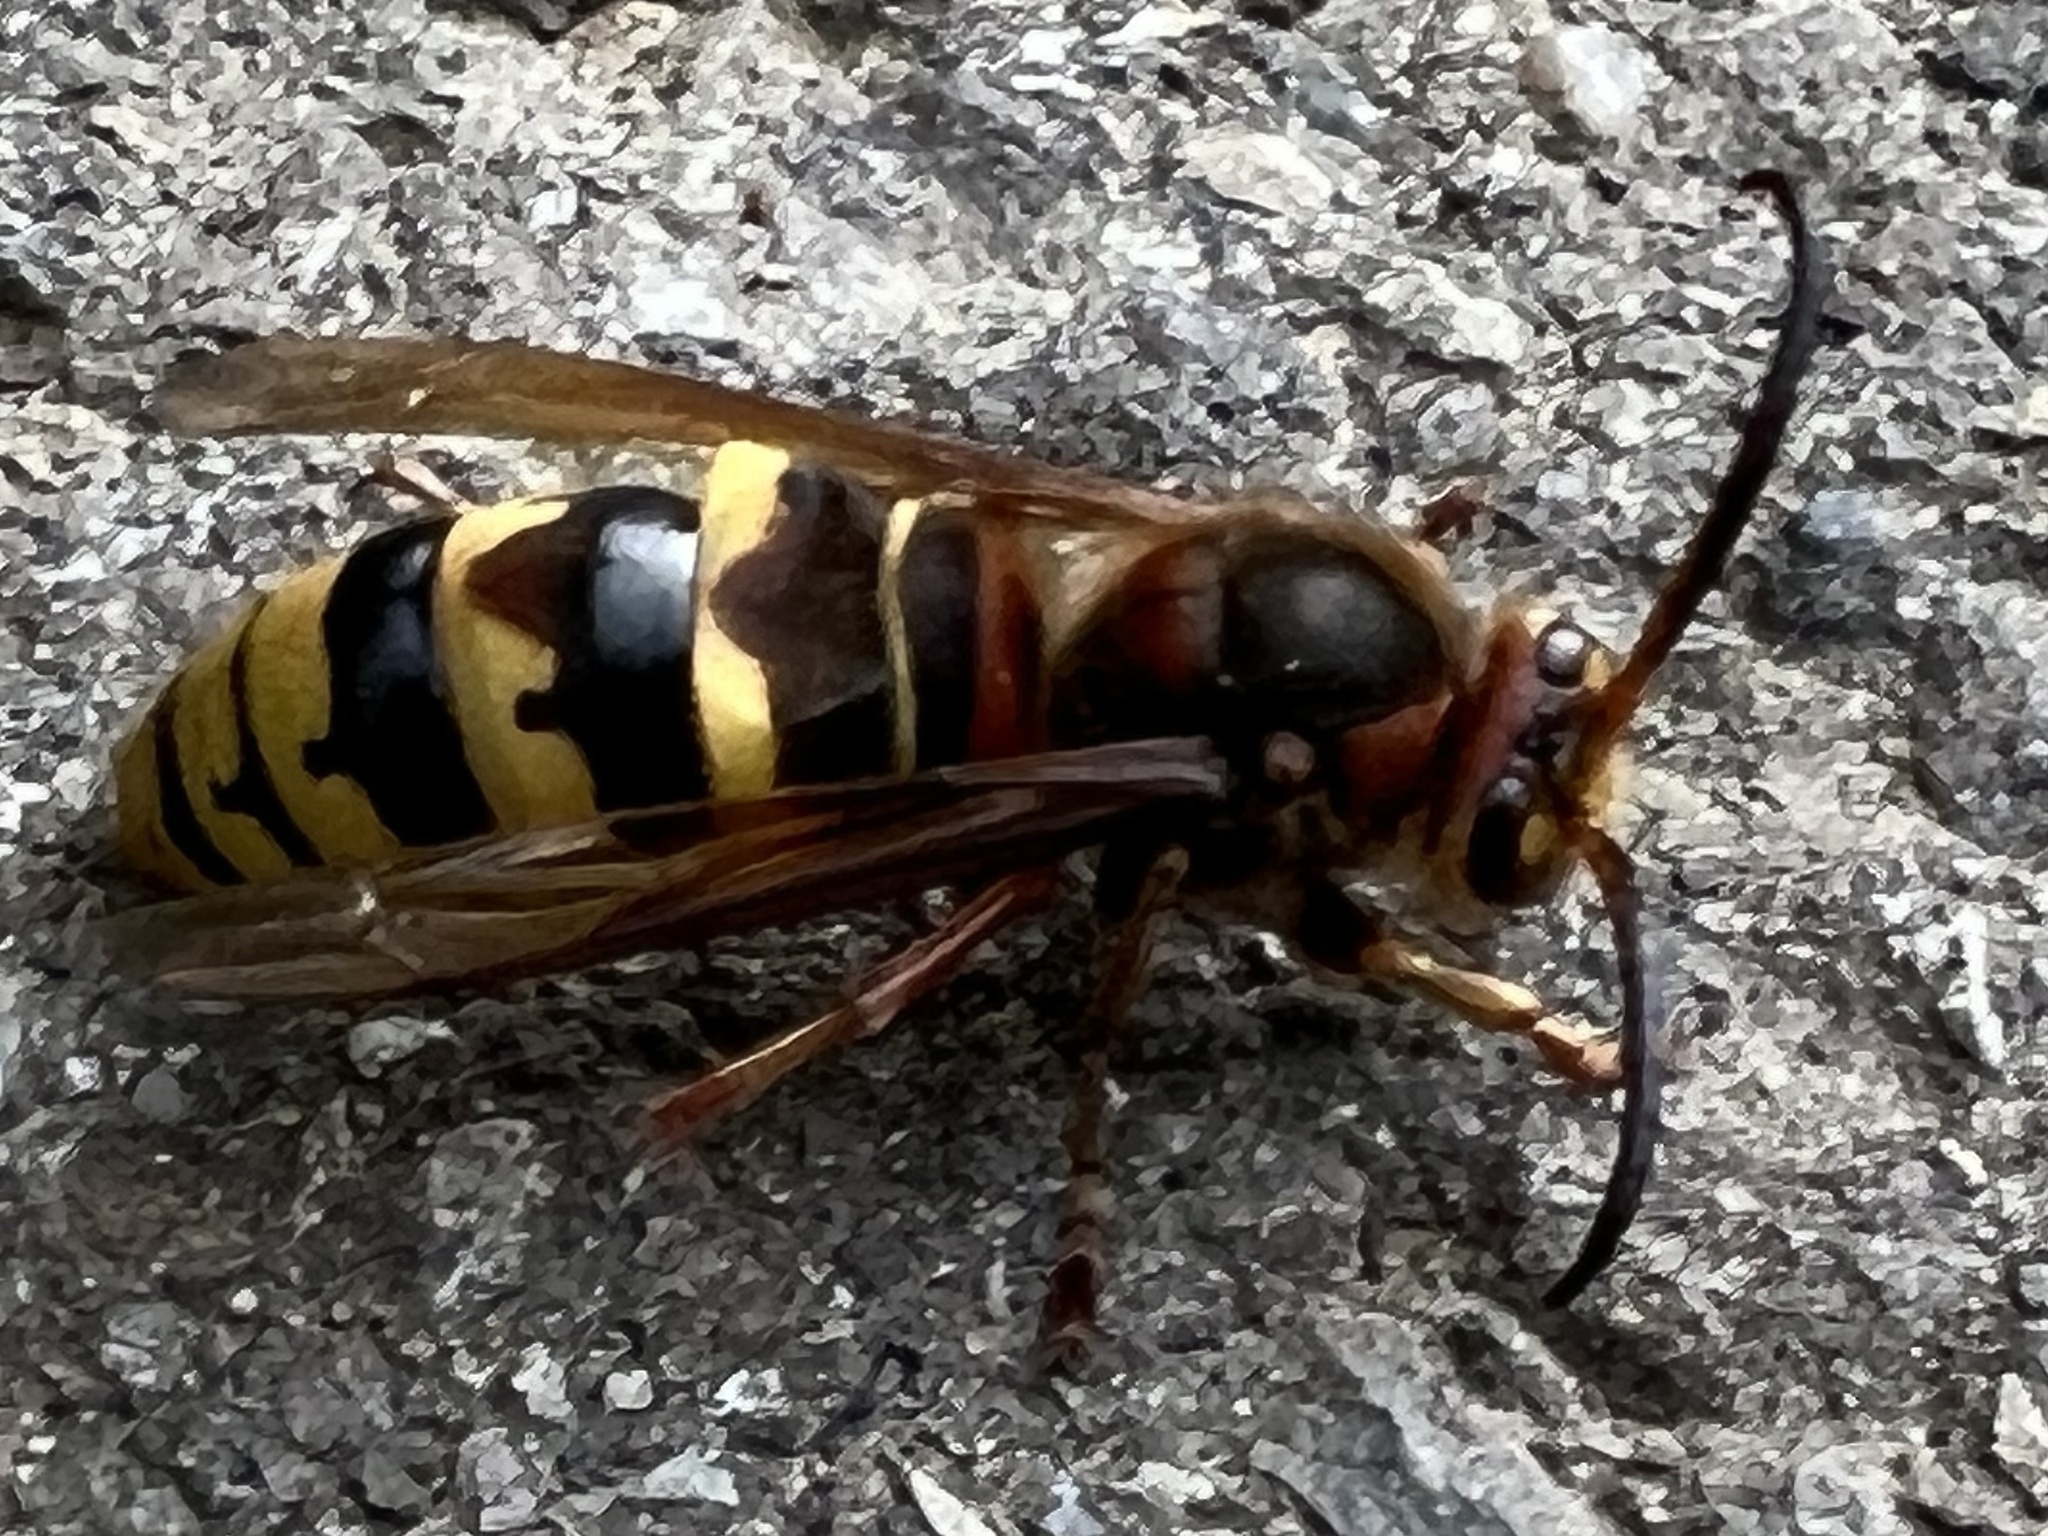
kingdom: Animalia
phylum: Arthropoda
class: Insecta
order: Hymenoptera
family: Vespidae
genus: Vespa
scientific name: Vespa crabro
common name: Hornet
